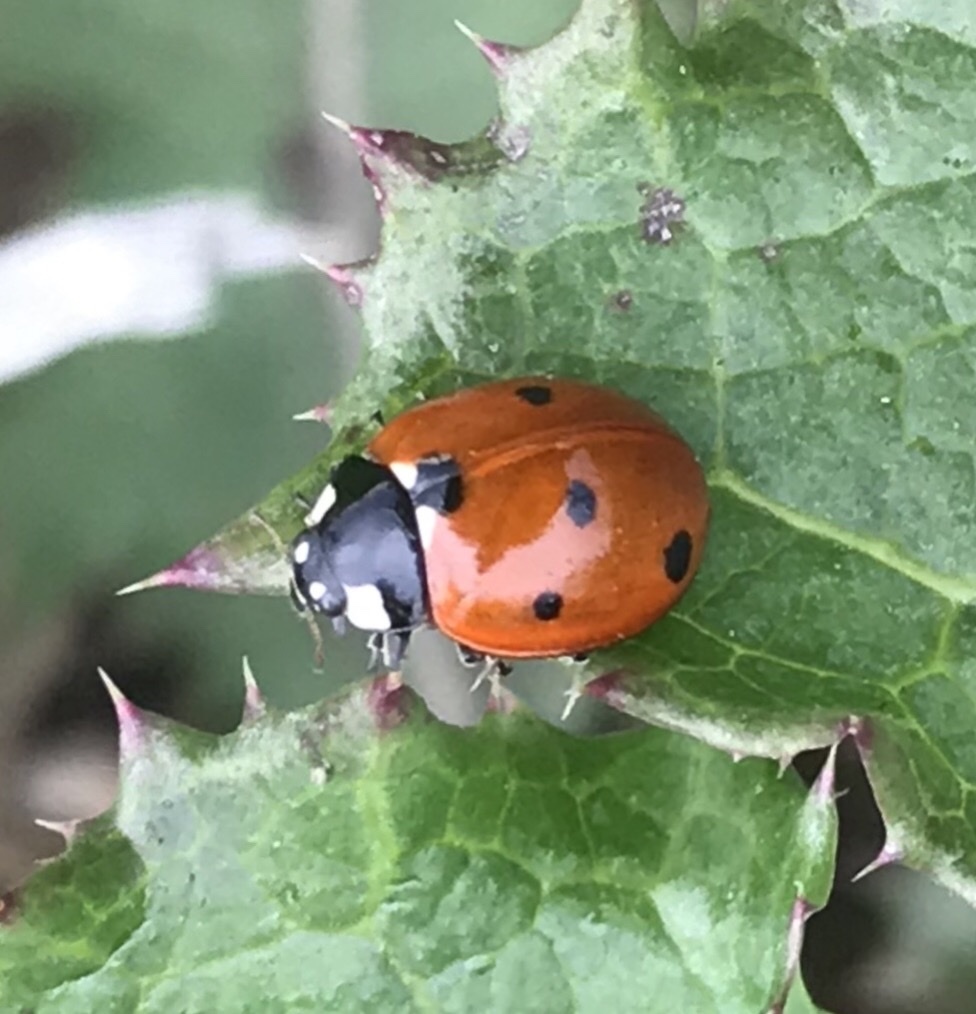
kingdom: Animalia
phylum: Arthropoda
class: Insecta
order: Coleoptera
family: Coccinellidae
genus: Coccinella
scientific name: Coccinella septempunctata
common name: Sevenspotted lady beetle
